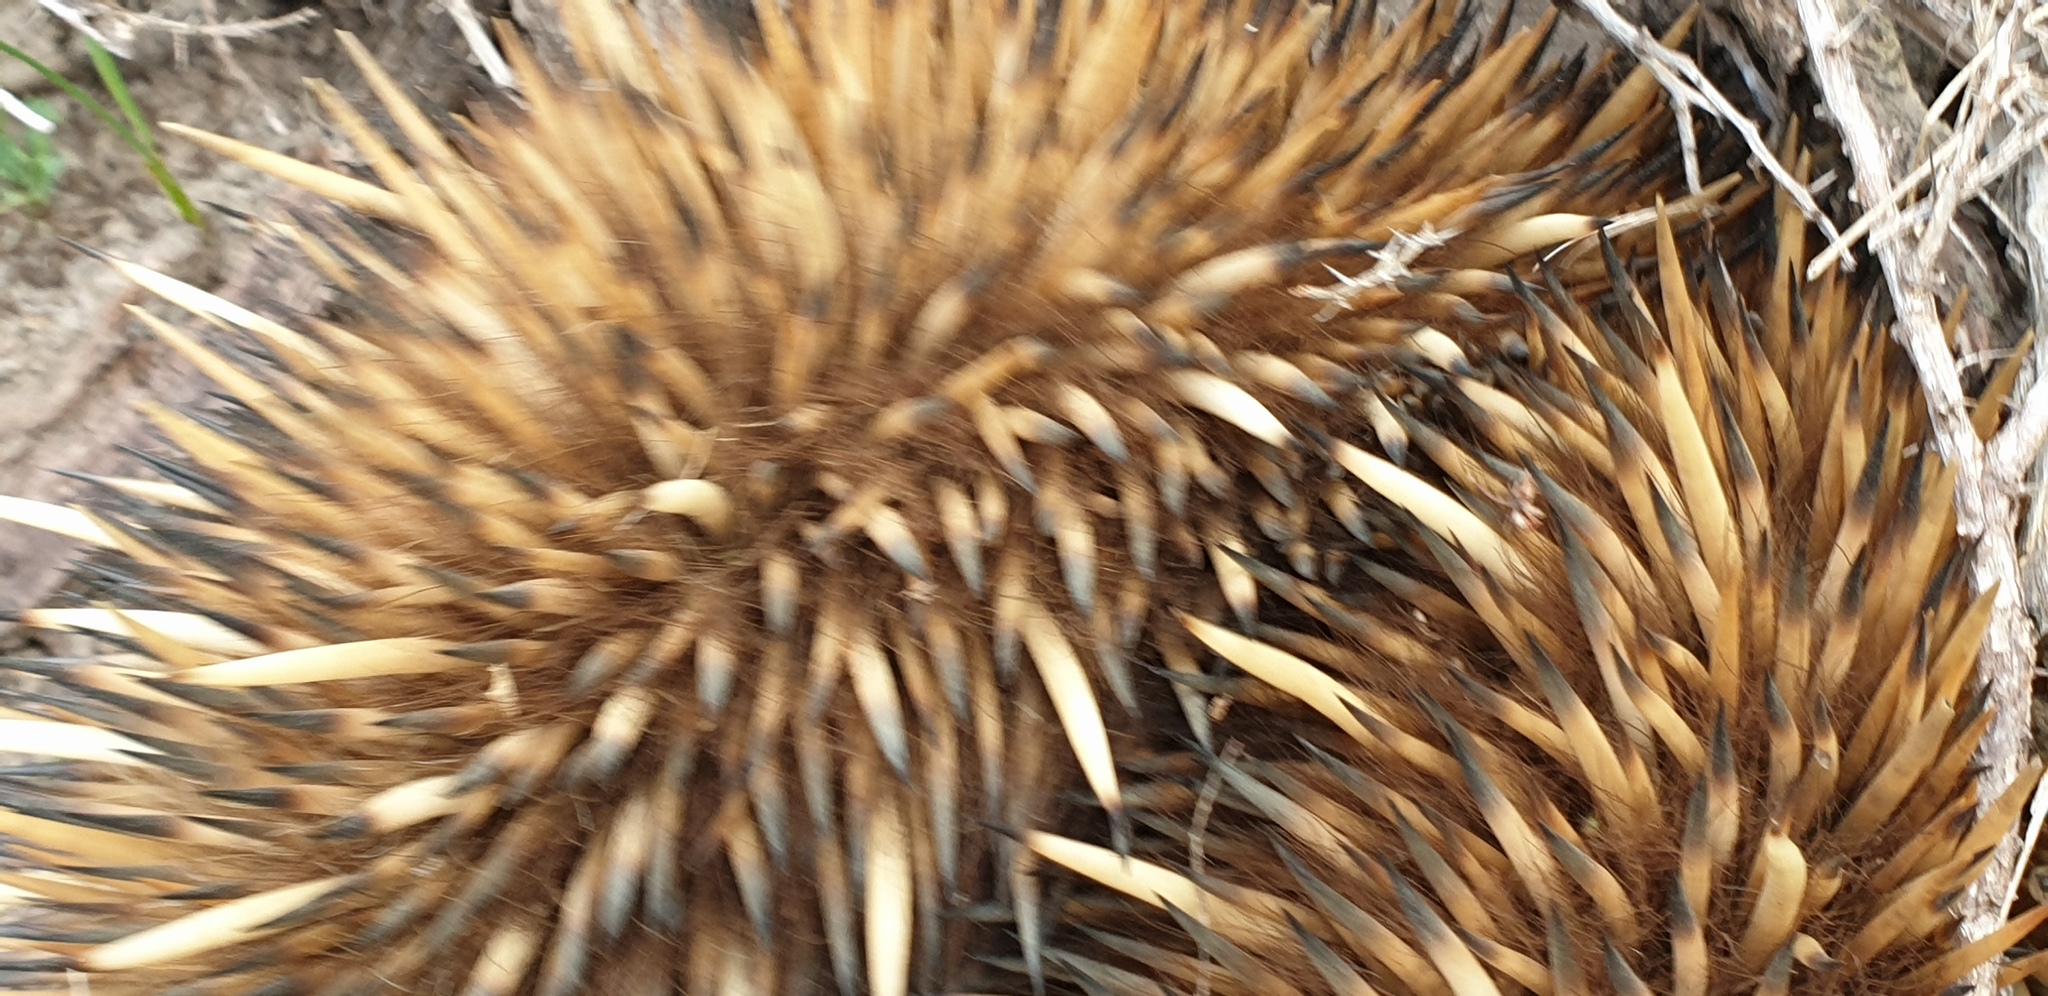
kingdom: Animalia
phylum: Chordata
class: Mammalia
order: Monotremata
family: Tachyglossidae
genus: Tachyglossus
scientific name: Tachyglossus aculeatus
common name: Short-beaked echidna
